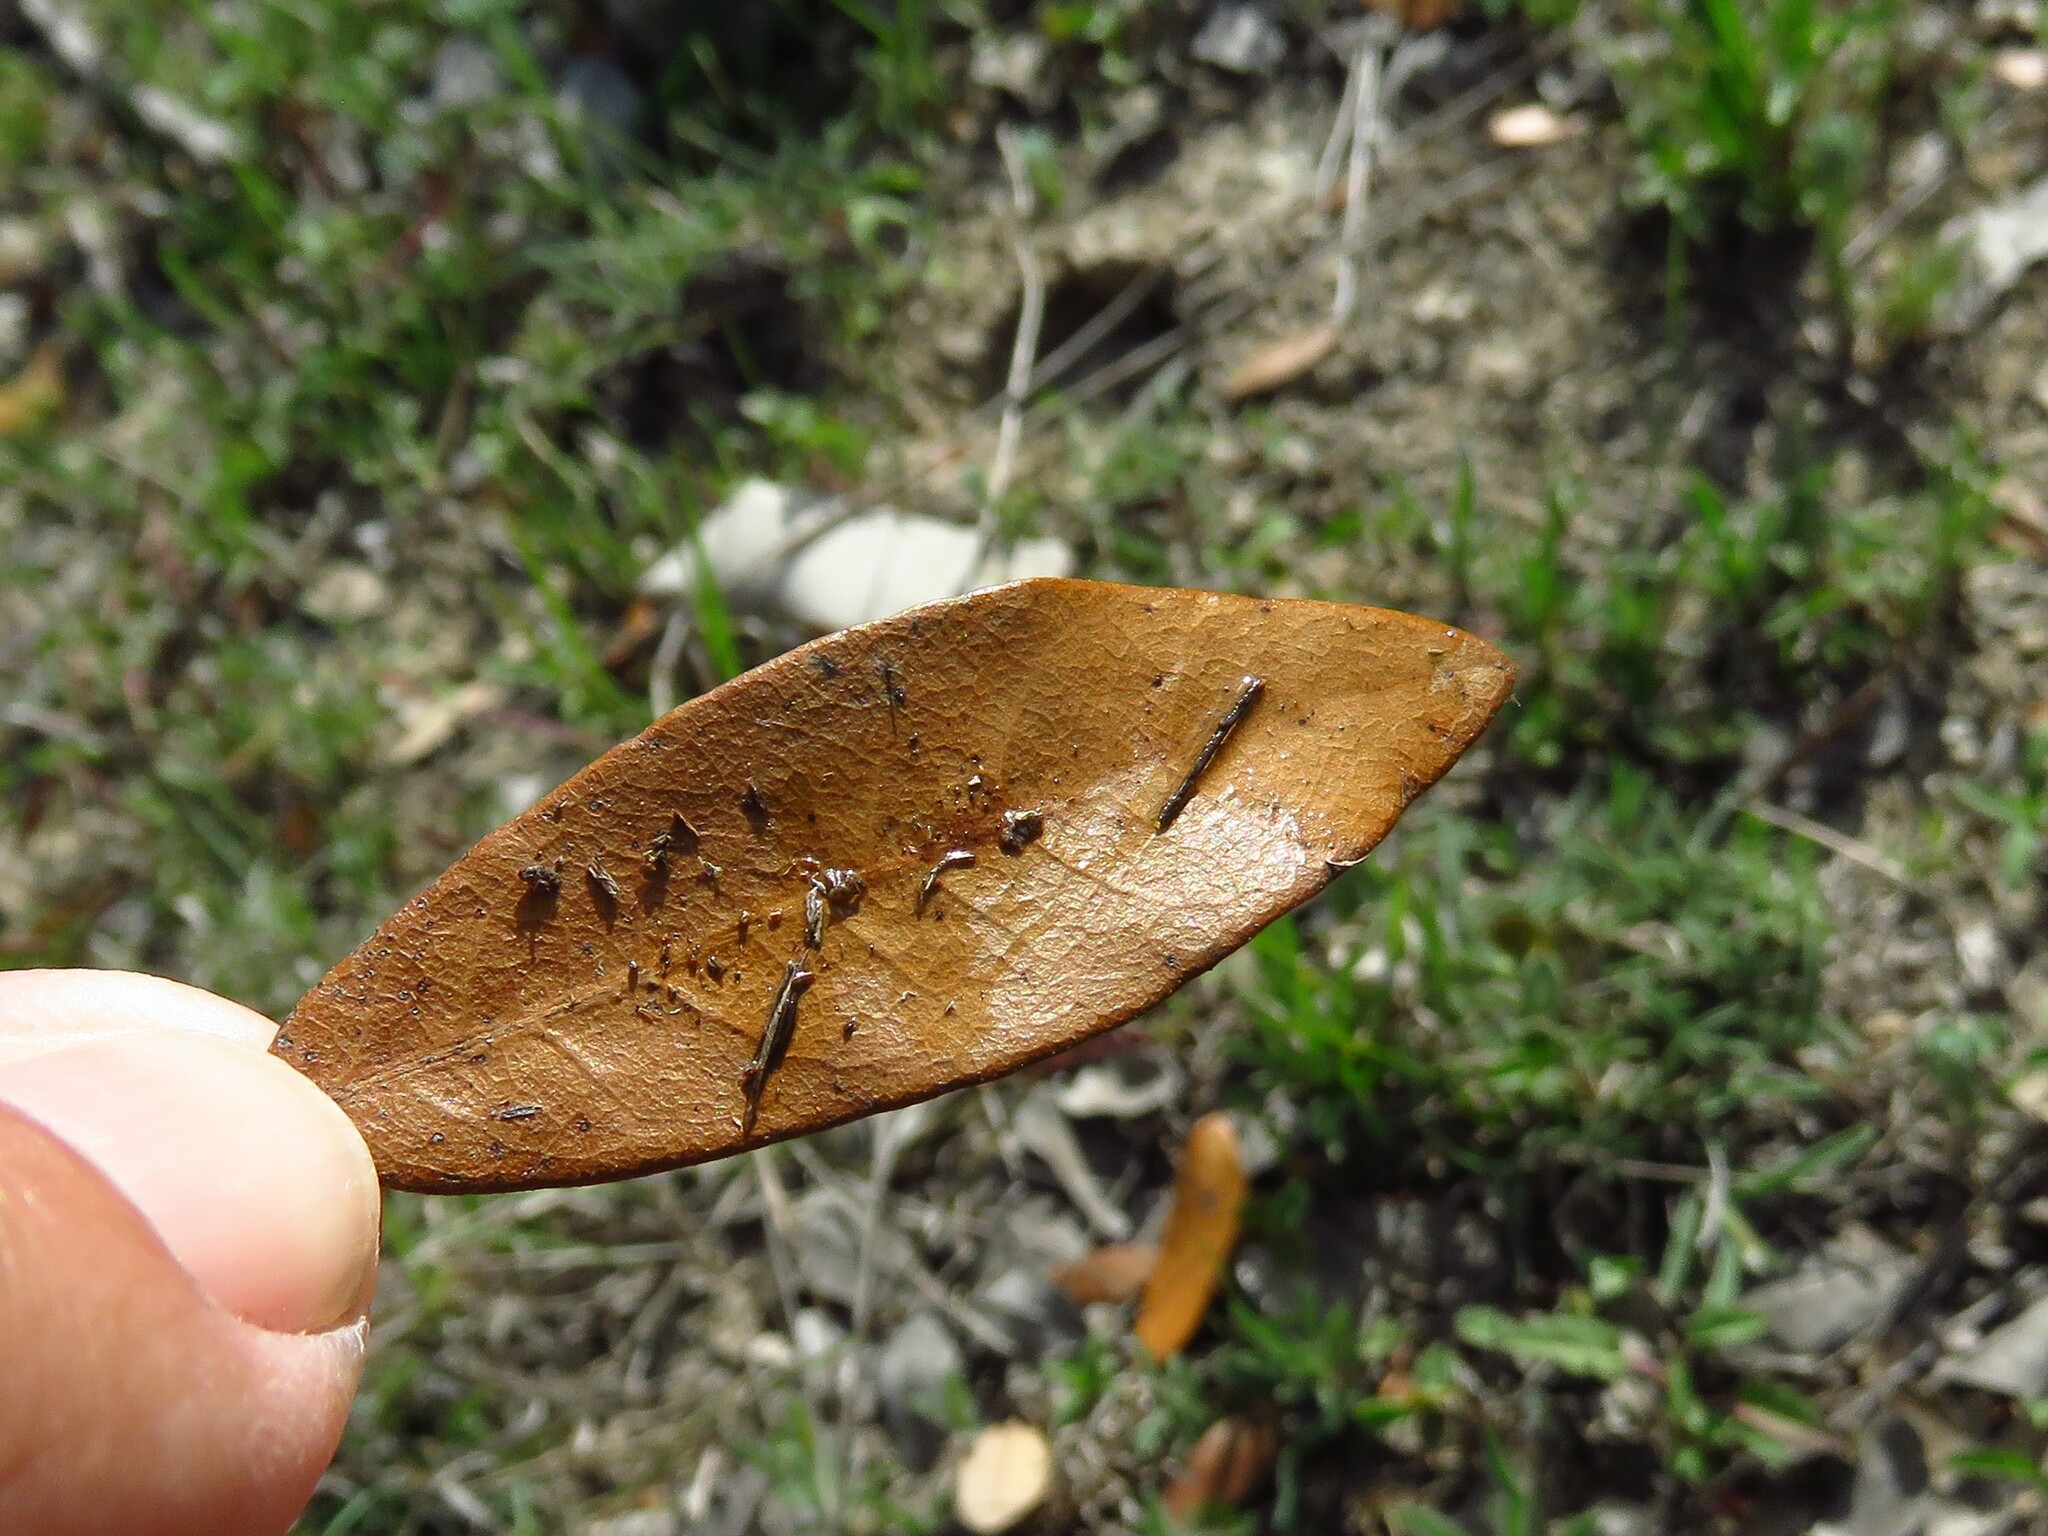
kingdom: Animalia
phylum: Arthropoda
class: Insecta
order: Hymenoptera
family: Cynipidae
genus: Andricus
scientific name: Andricus Druon quercuslanigerum
